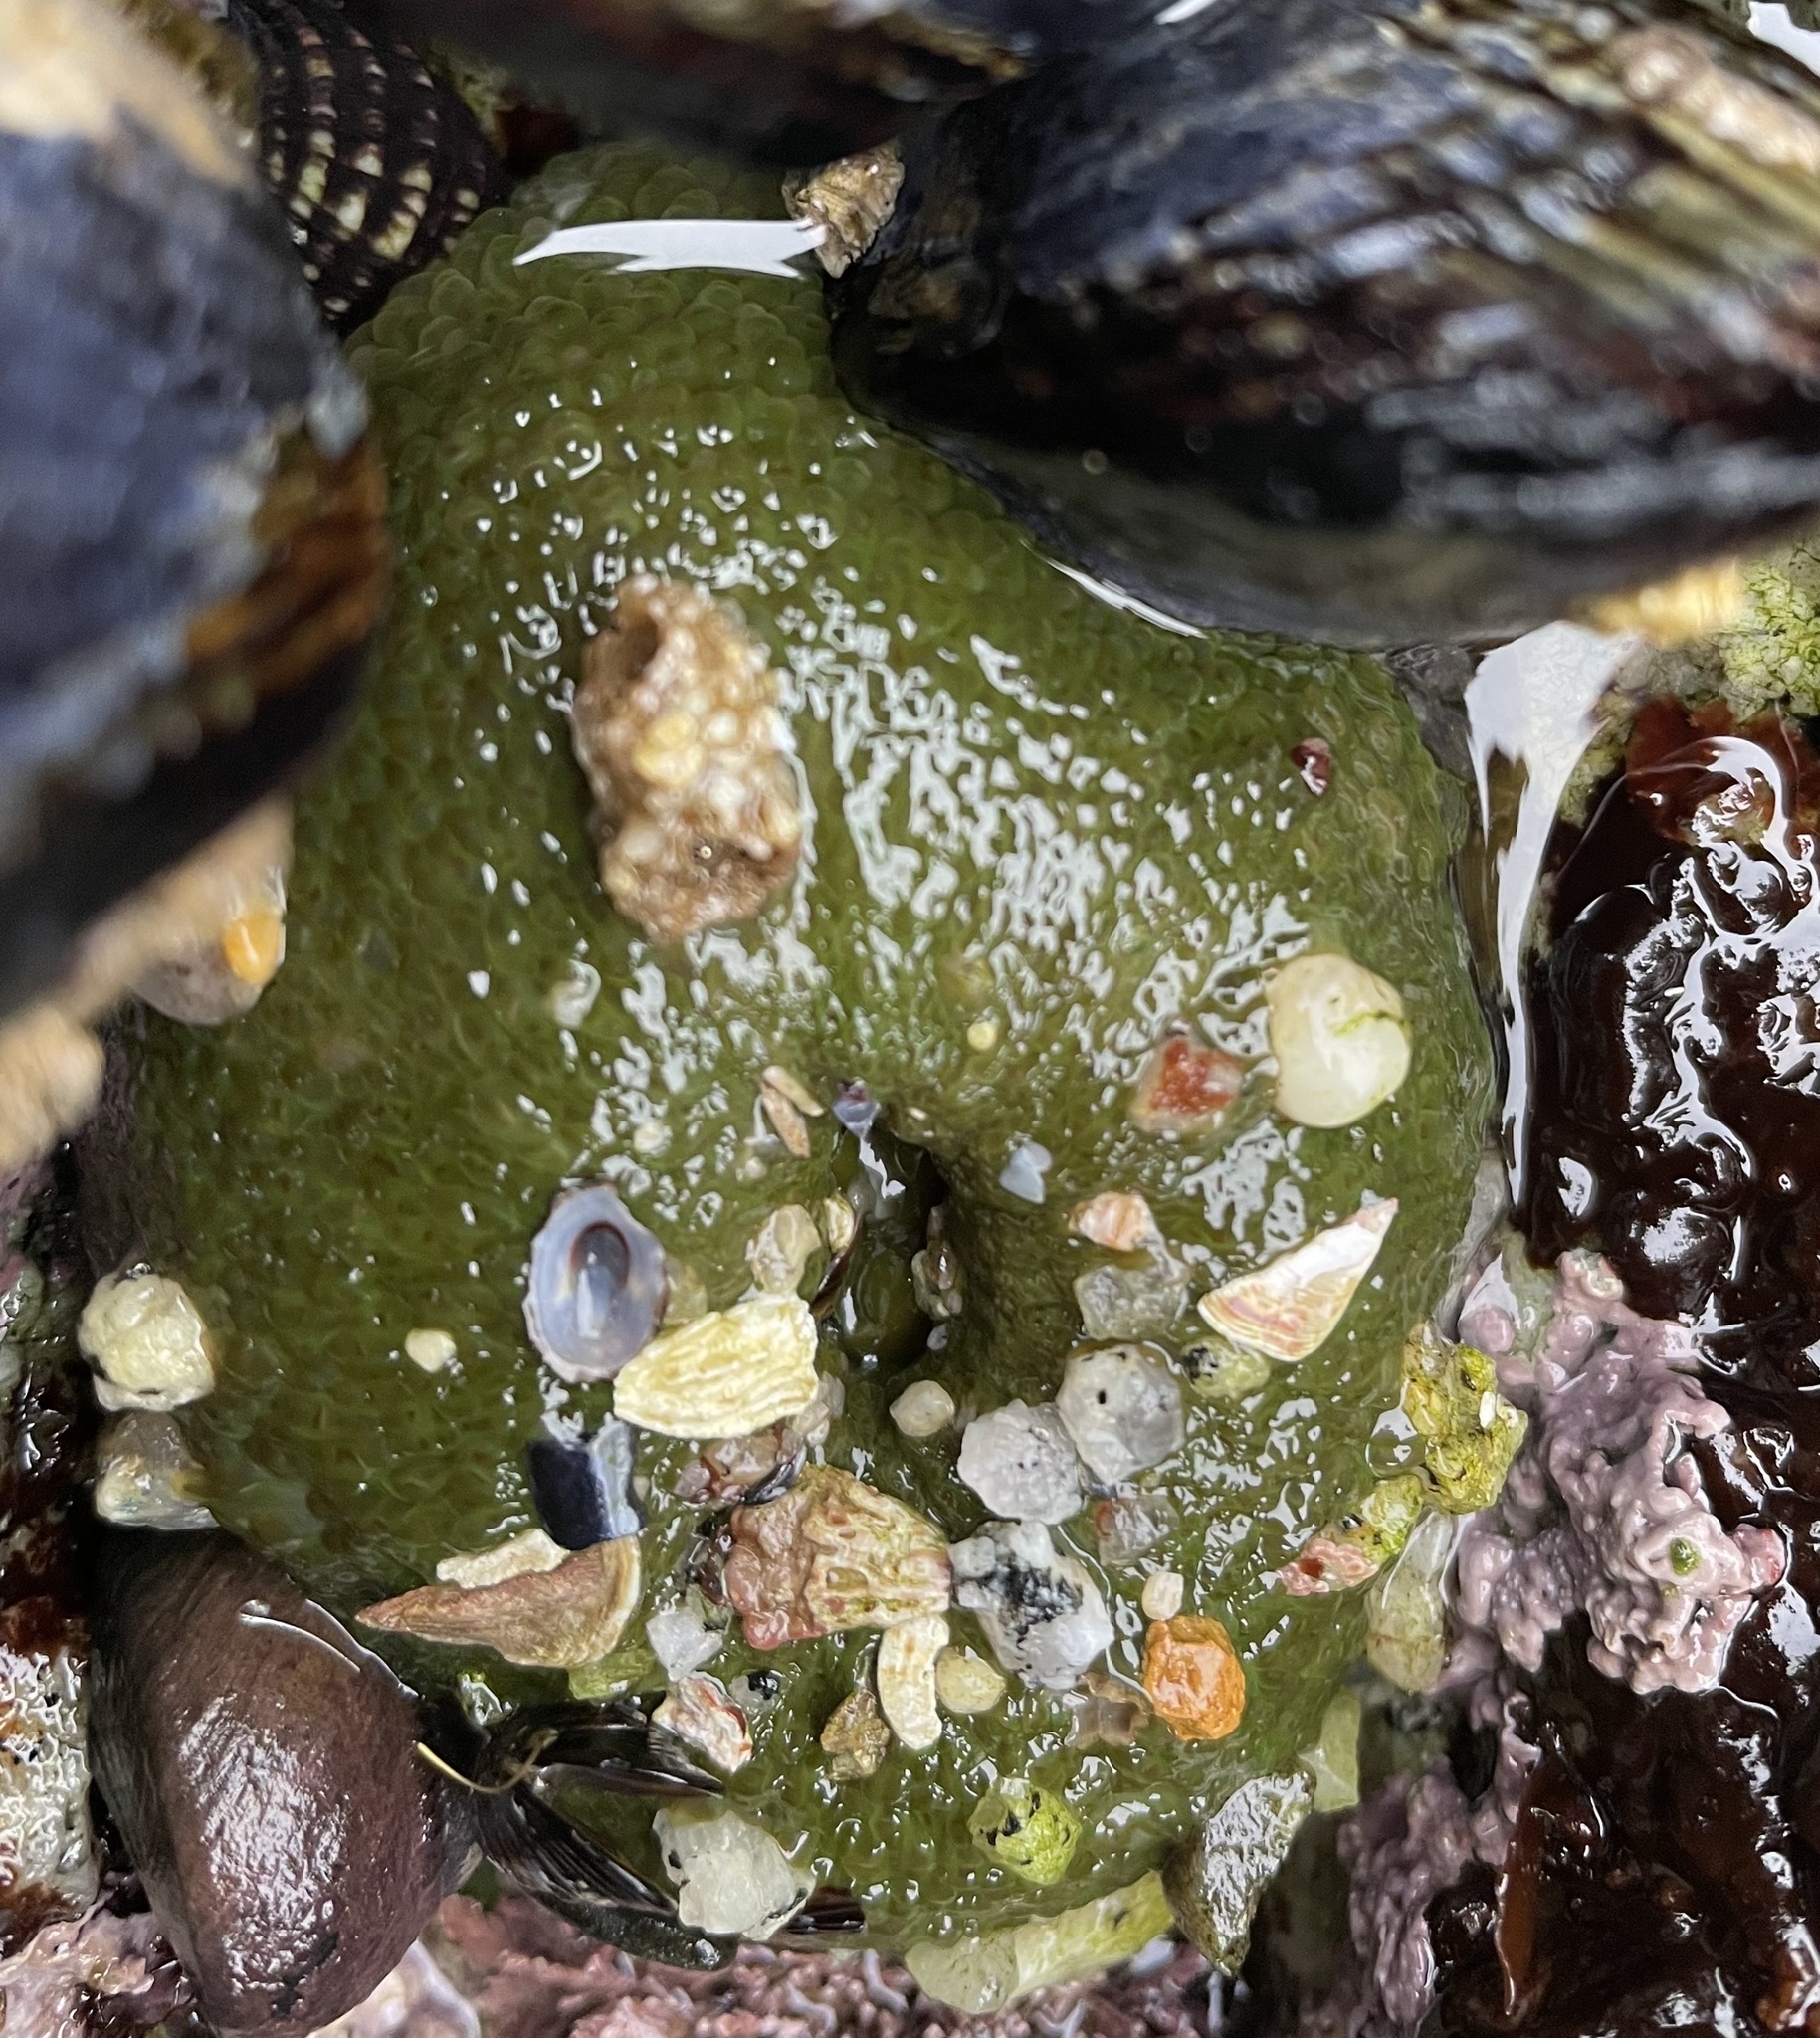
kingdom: Animalia
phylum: Cnidaria
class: Anthozoa
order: Actiniaria
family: Actiniidae
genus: Anthopleura
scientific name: Anthopleura elegantissima
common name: Clonal anemone
